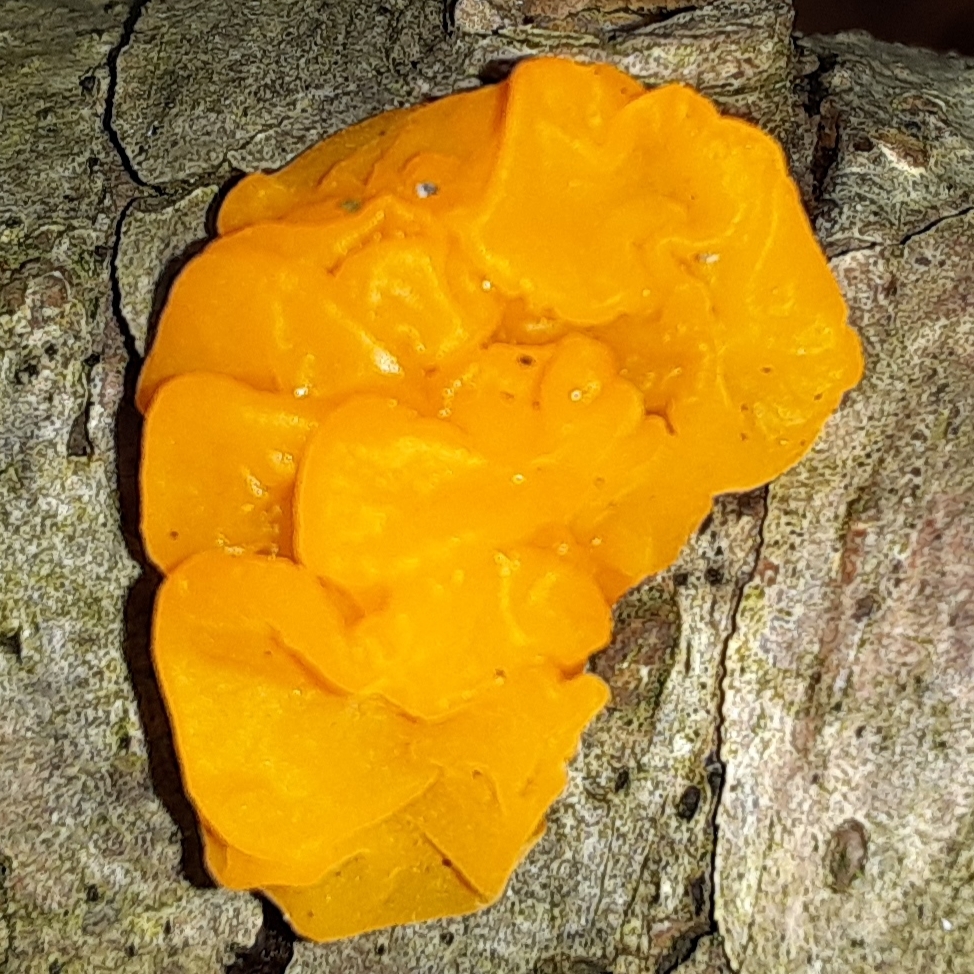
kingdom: Fungi
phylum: Basidiomycota
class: Dacrymycetes
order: Dacrymycetales
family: Dacrymycetaceae
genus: Dacrymyces
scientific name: Dacrymyces chrysospermus
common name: Orange jelly spot
